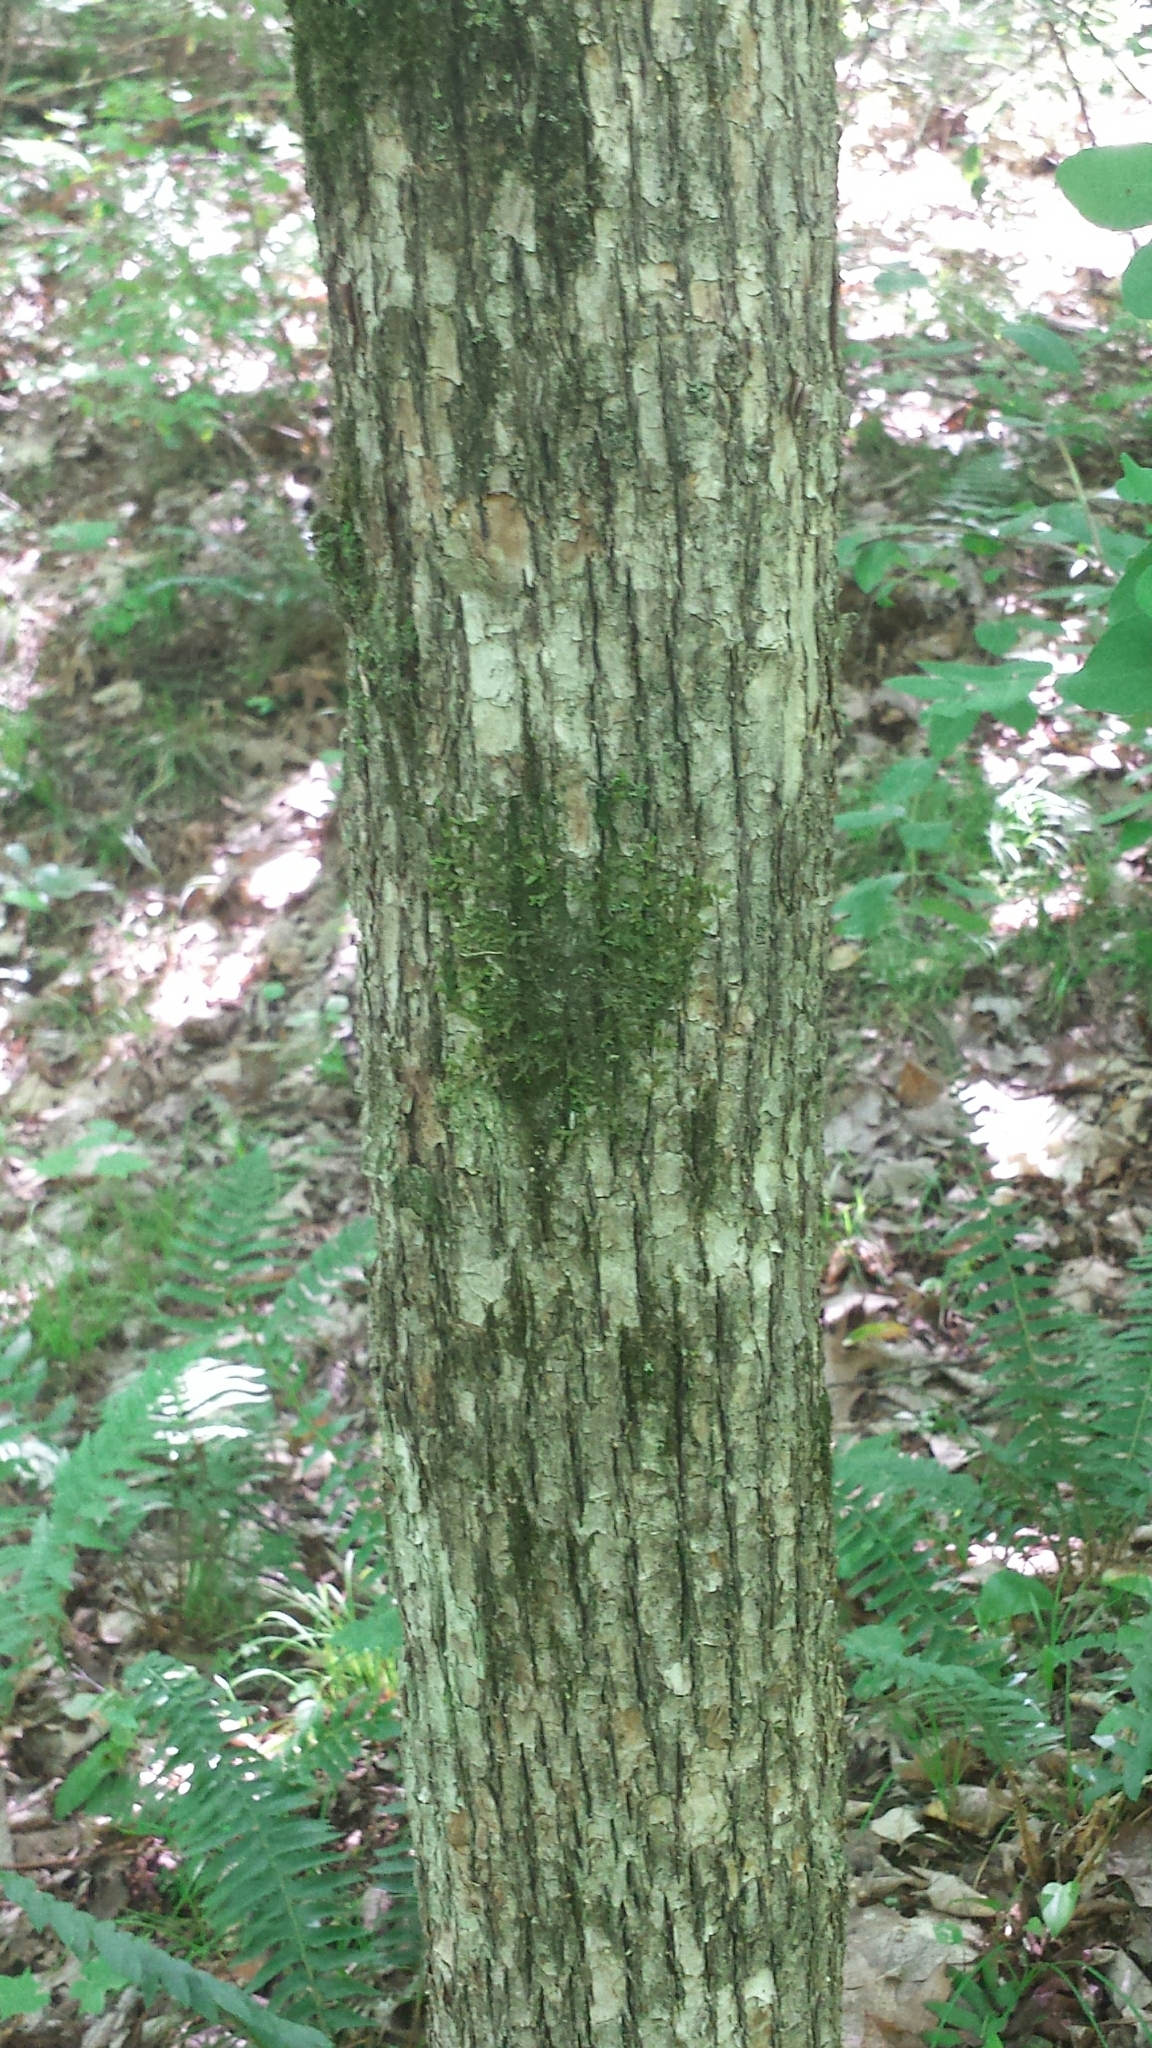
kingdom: Plantae
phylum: Tracheophyta
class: Magnoliopsida
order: Fagales
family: Betulaceae
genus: Ostrya
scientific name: Ostrya virginiana
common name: Ironwood
